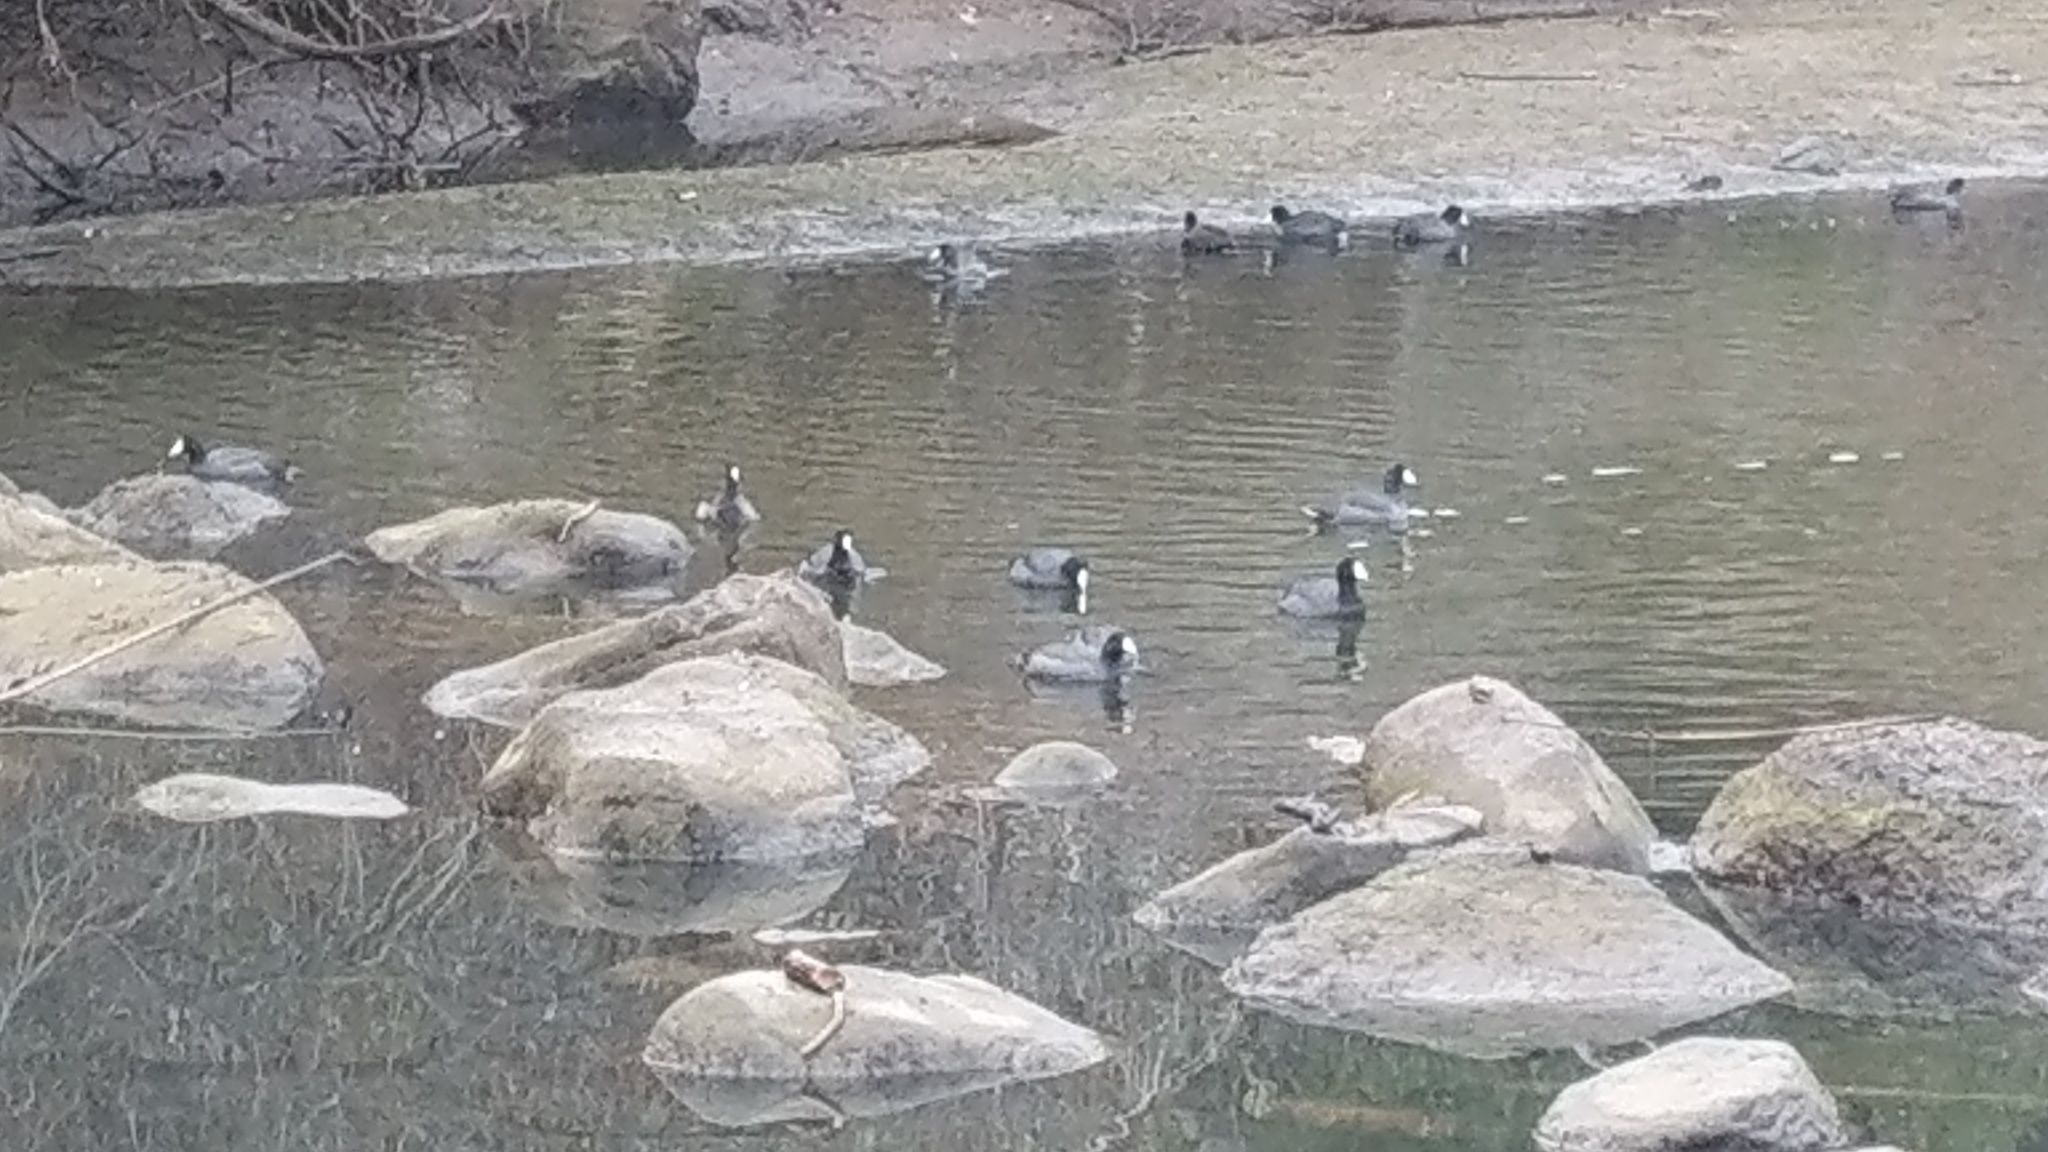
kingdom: Animalia
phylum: Chordata
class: Aves
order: Gruiformes
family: Rallidae
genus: Fulica
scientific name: Fulica americana
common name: American coot
